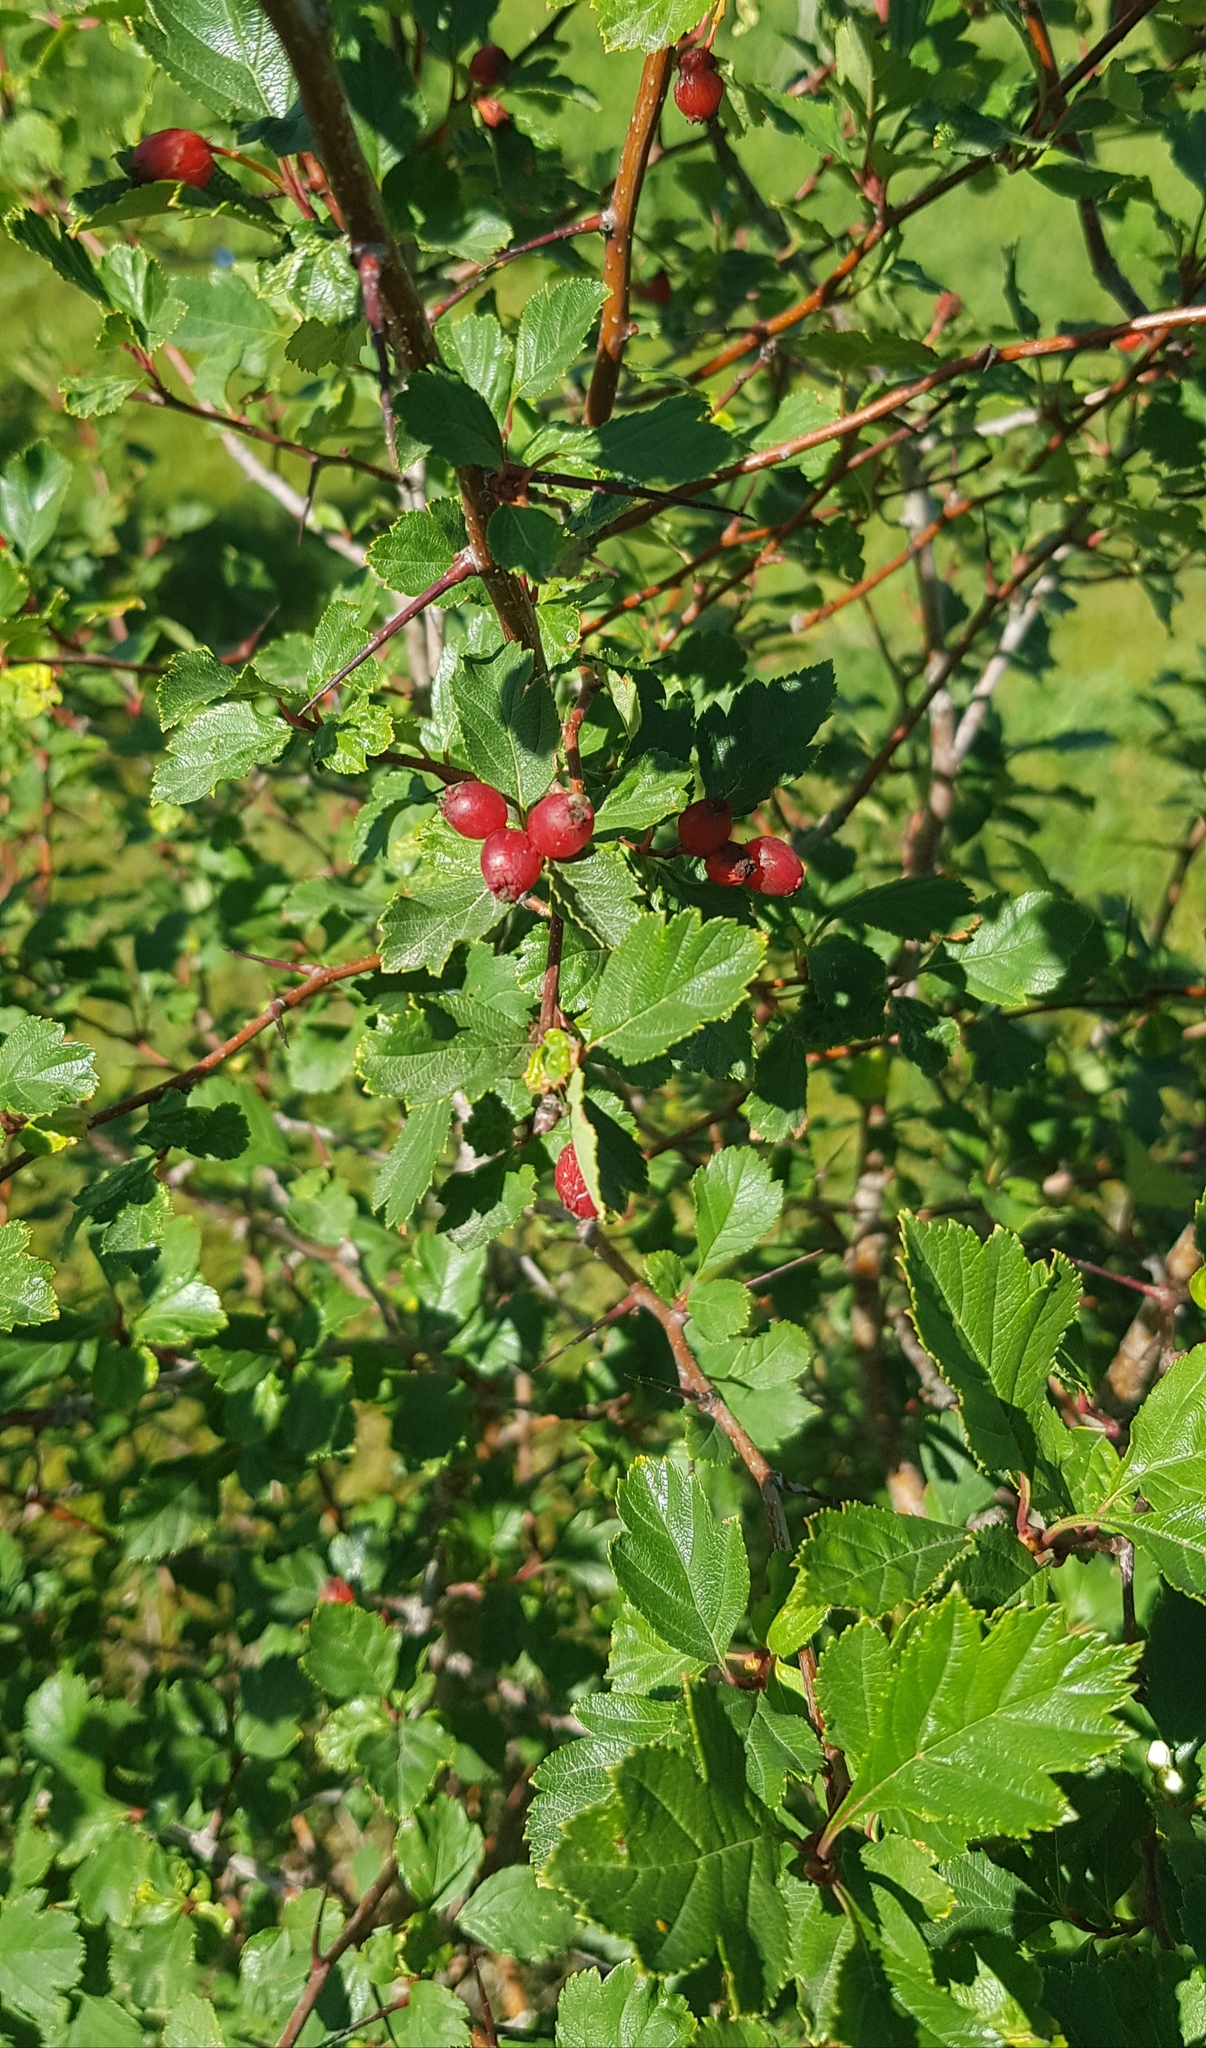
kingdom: Plantae
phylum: Tracheophyta
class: Magnoliopsida
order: Saxifragales
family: Grossulariaceae
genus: Ribes
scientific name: Ribes diacanthum
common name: Siberian currant
